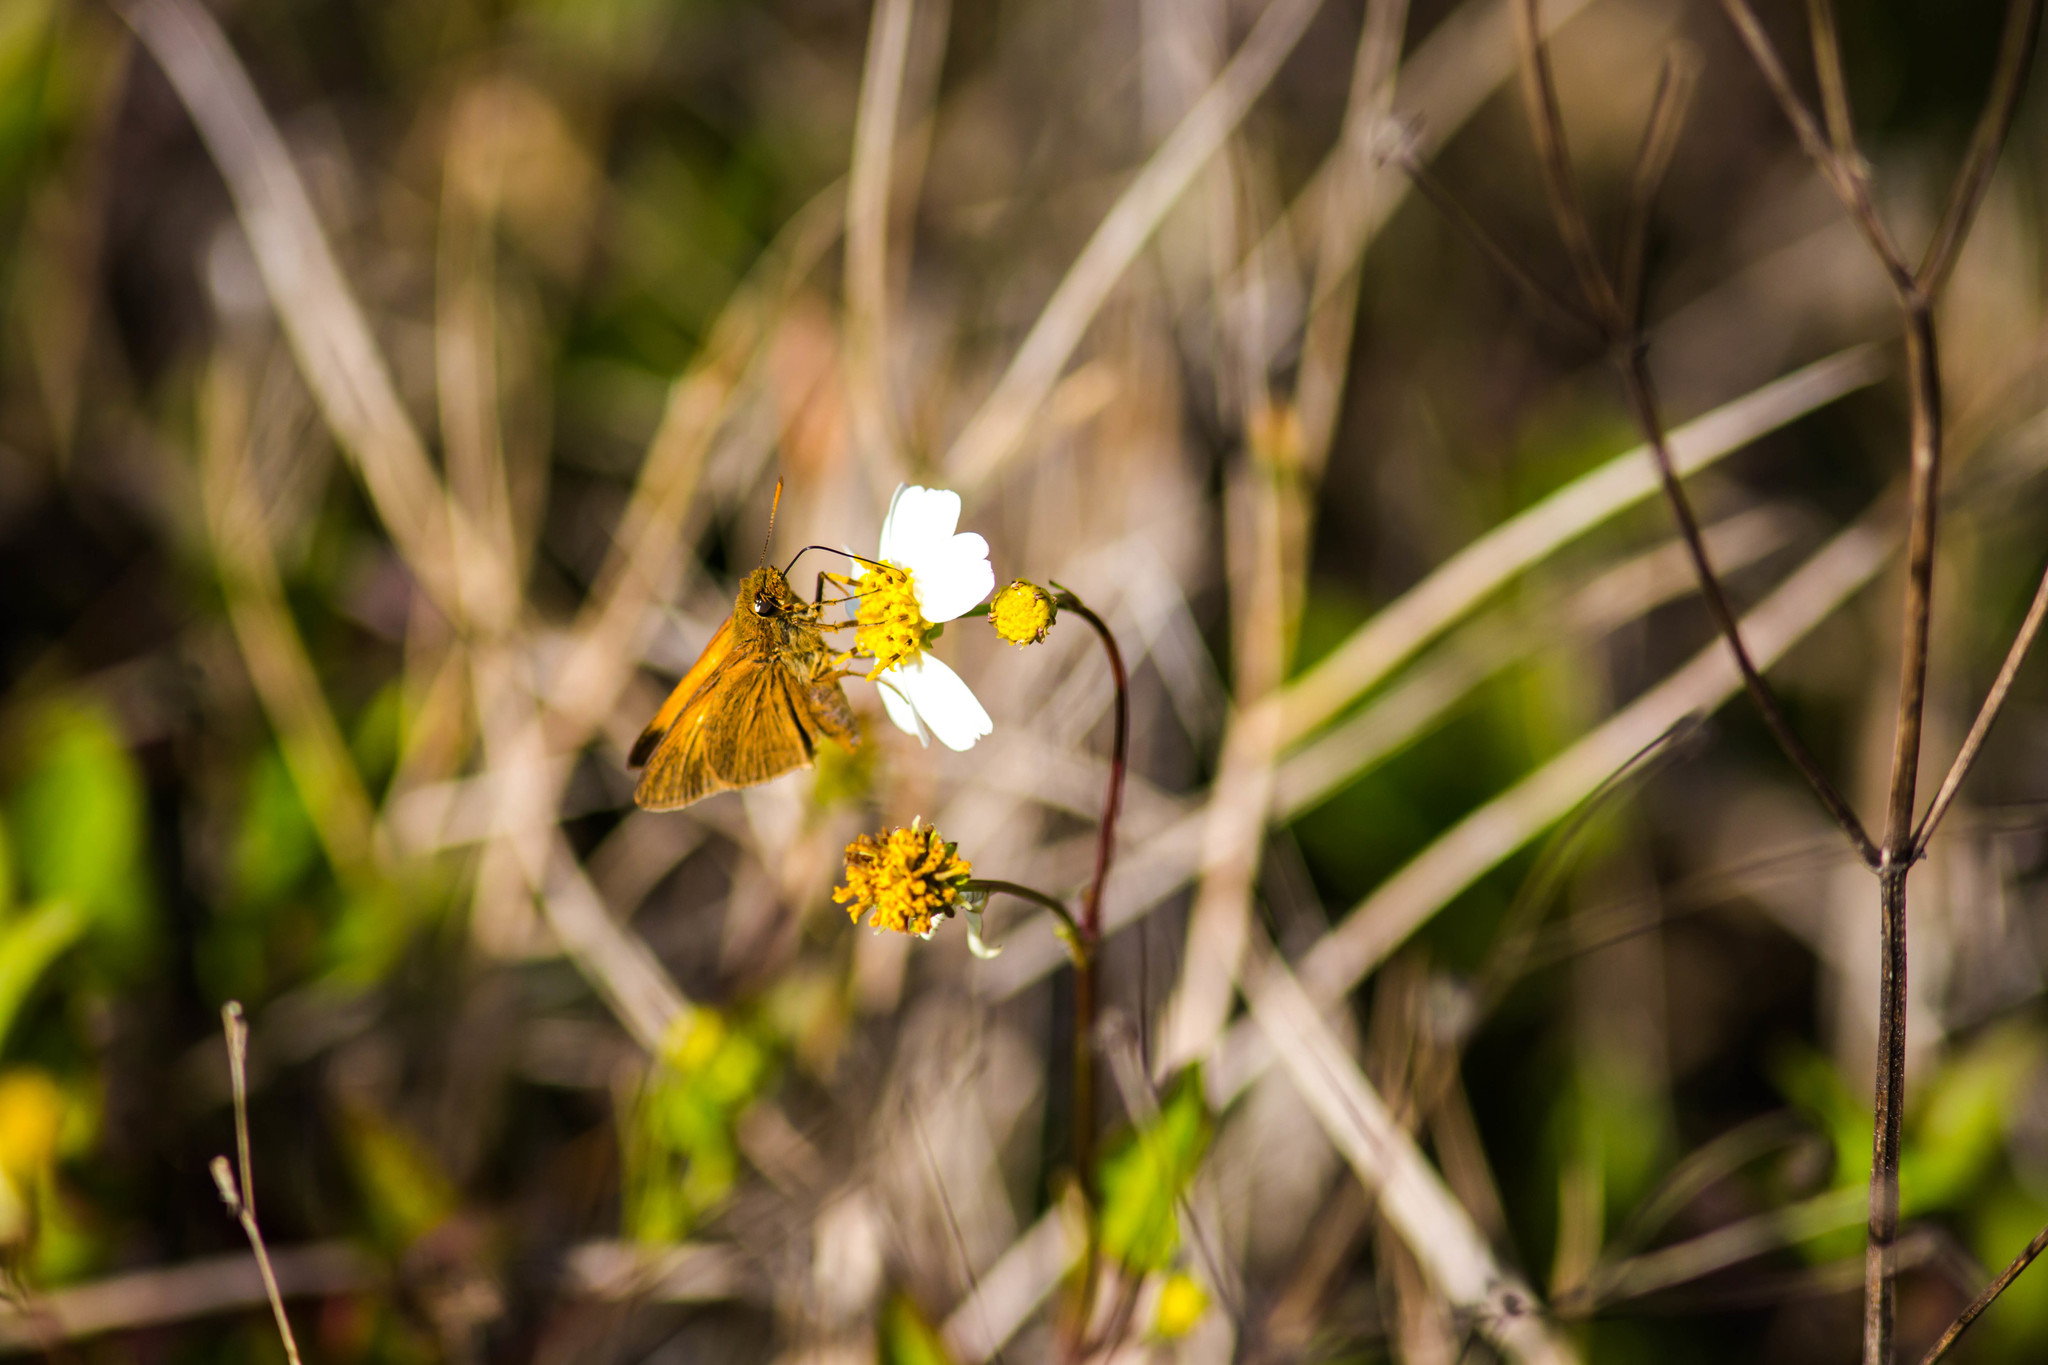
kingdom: Animalia
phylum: Arthropoda
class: Insecta
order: Lepidoptera
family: Hesperiidae
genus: Euphyes
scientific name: Euphyes pilatka
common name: Palatka skipper
